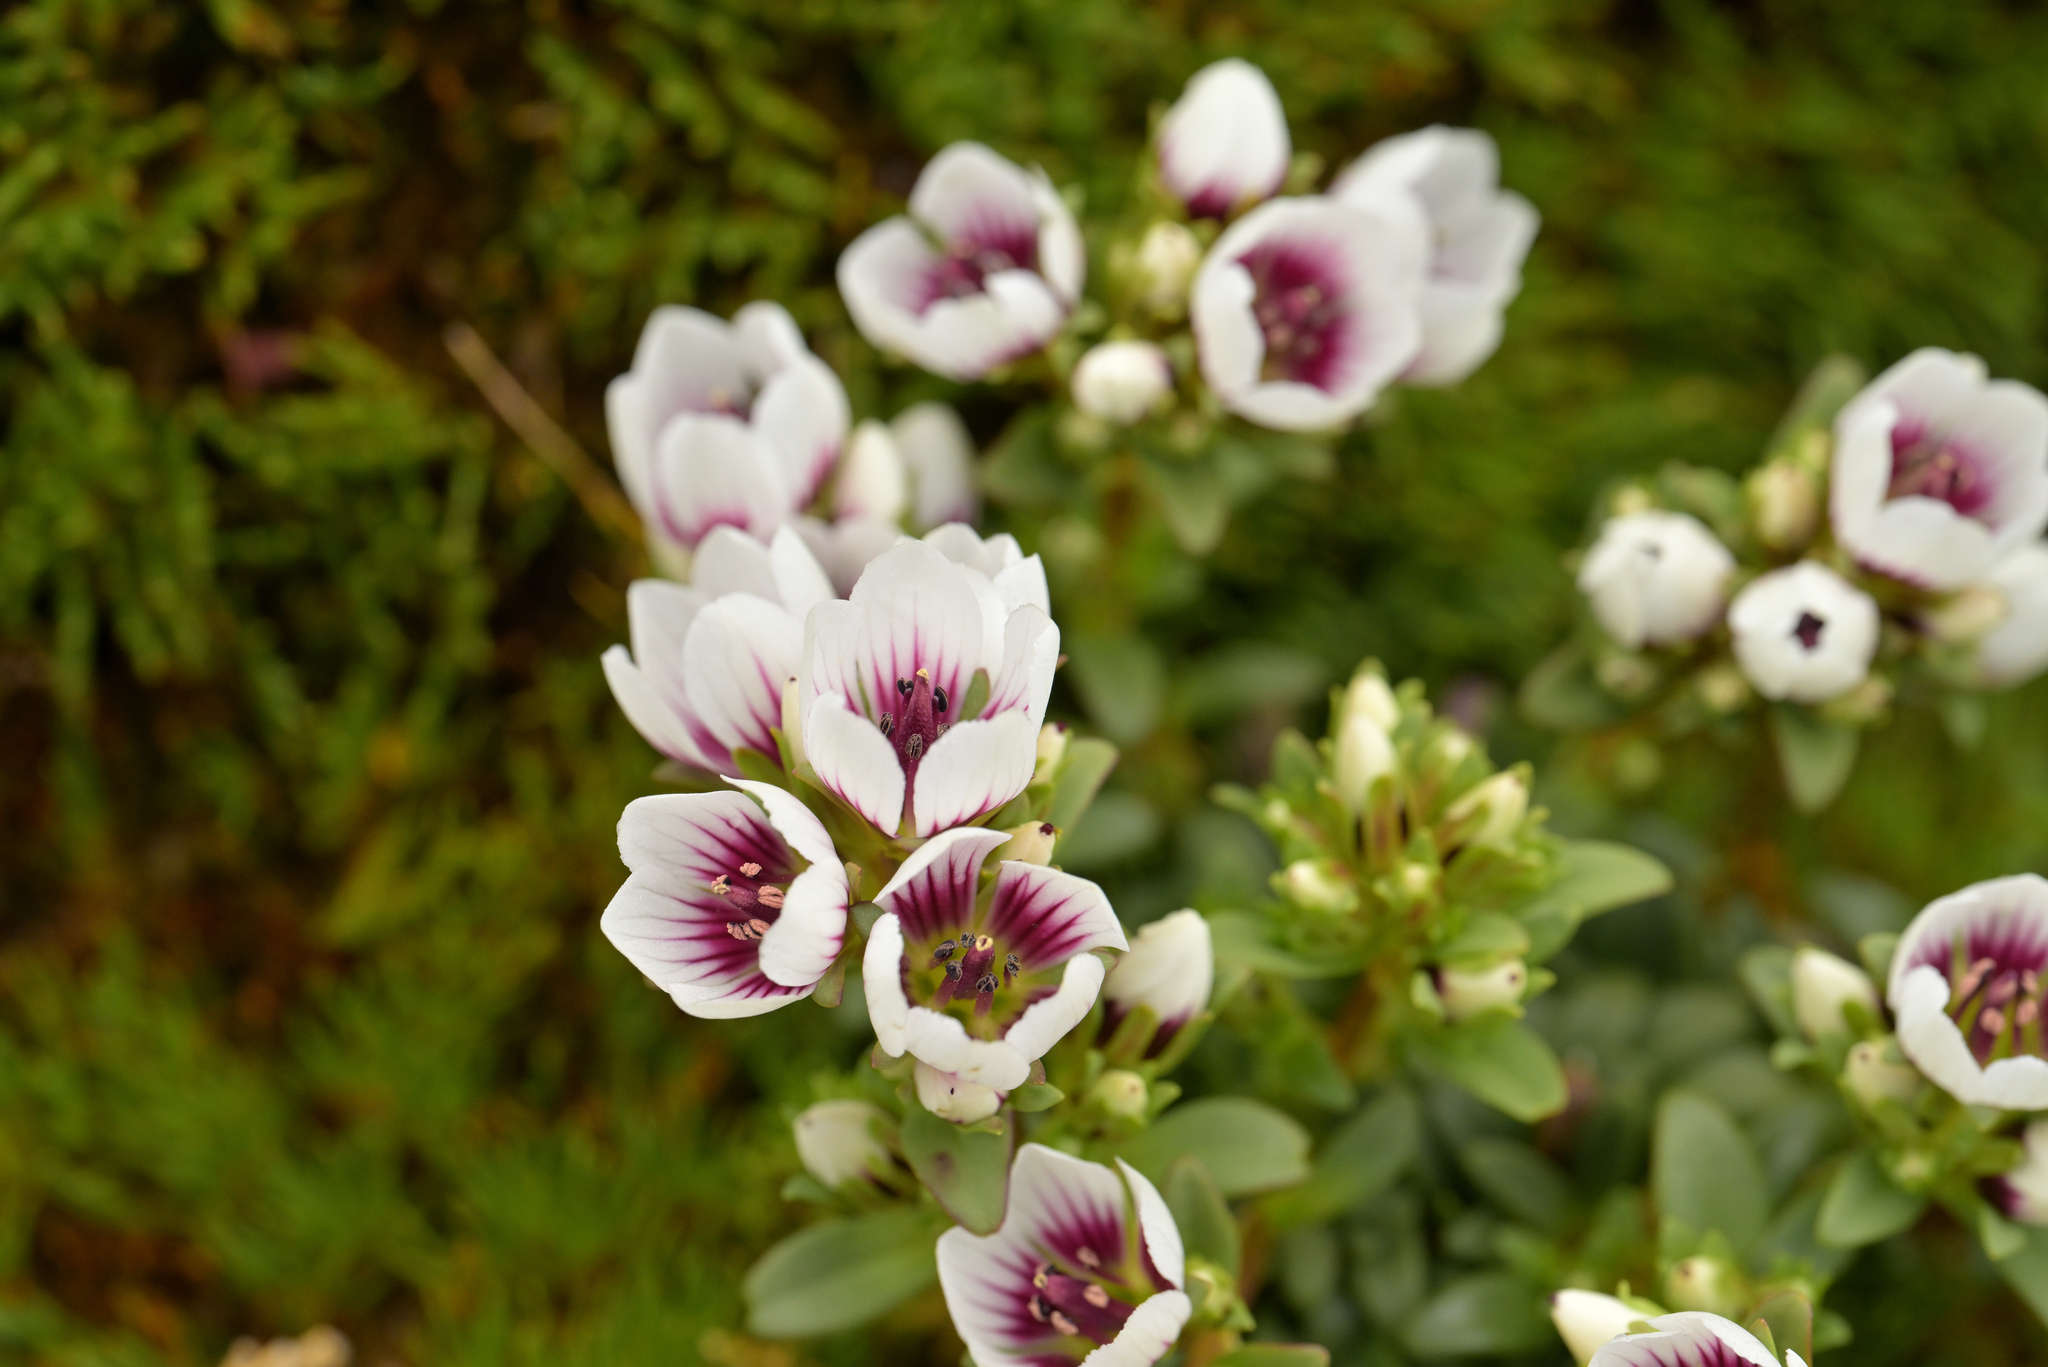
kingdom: Plantae
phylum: Tracheophyta
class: Magnoliopsida
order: Gentianales
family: Gentianaceae
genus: Gentianella
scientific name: Gentianella concinna
